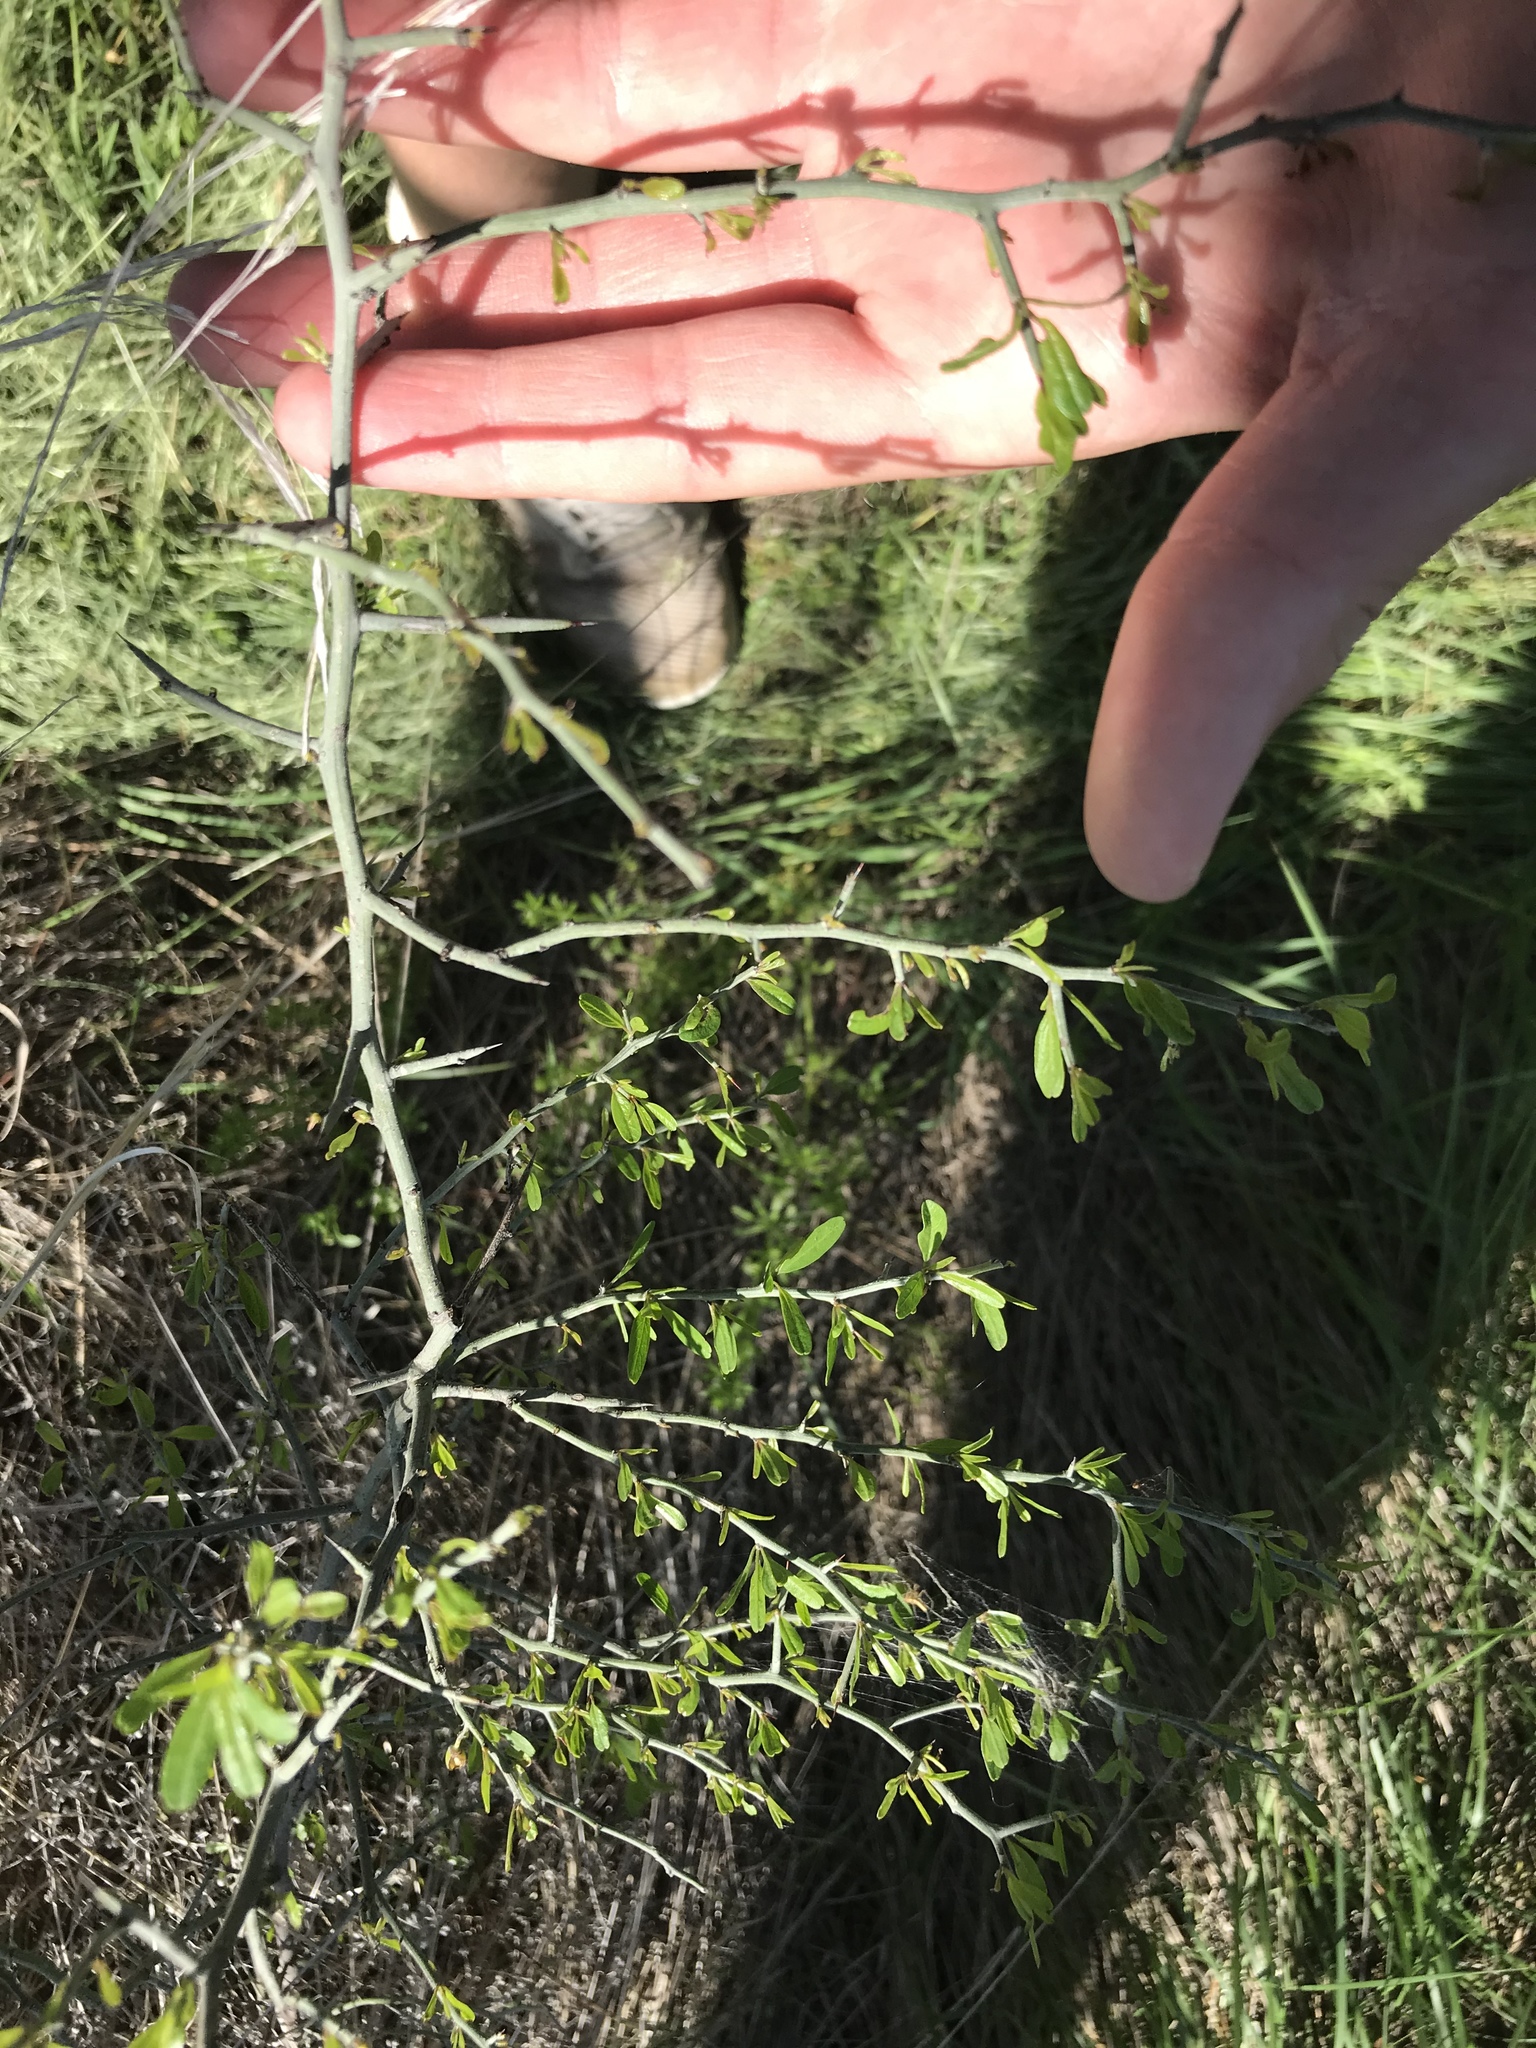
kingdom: Plantae
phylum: Tracheophyta
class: Magnoliopsida
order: Rosales
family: Rhamnaceae
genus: Sarcomphalus
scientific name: Sarcomphalus obtusifolius
